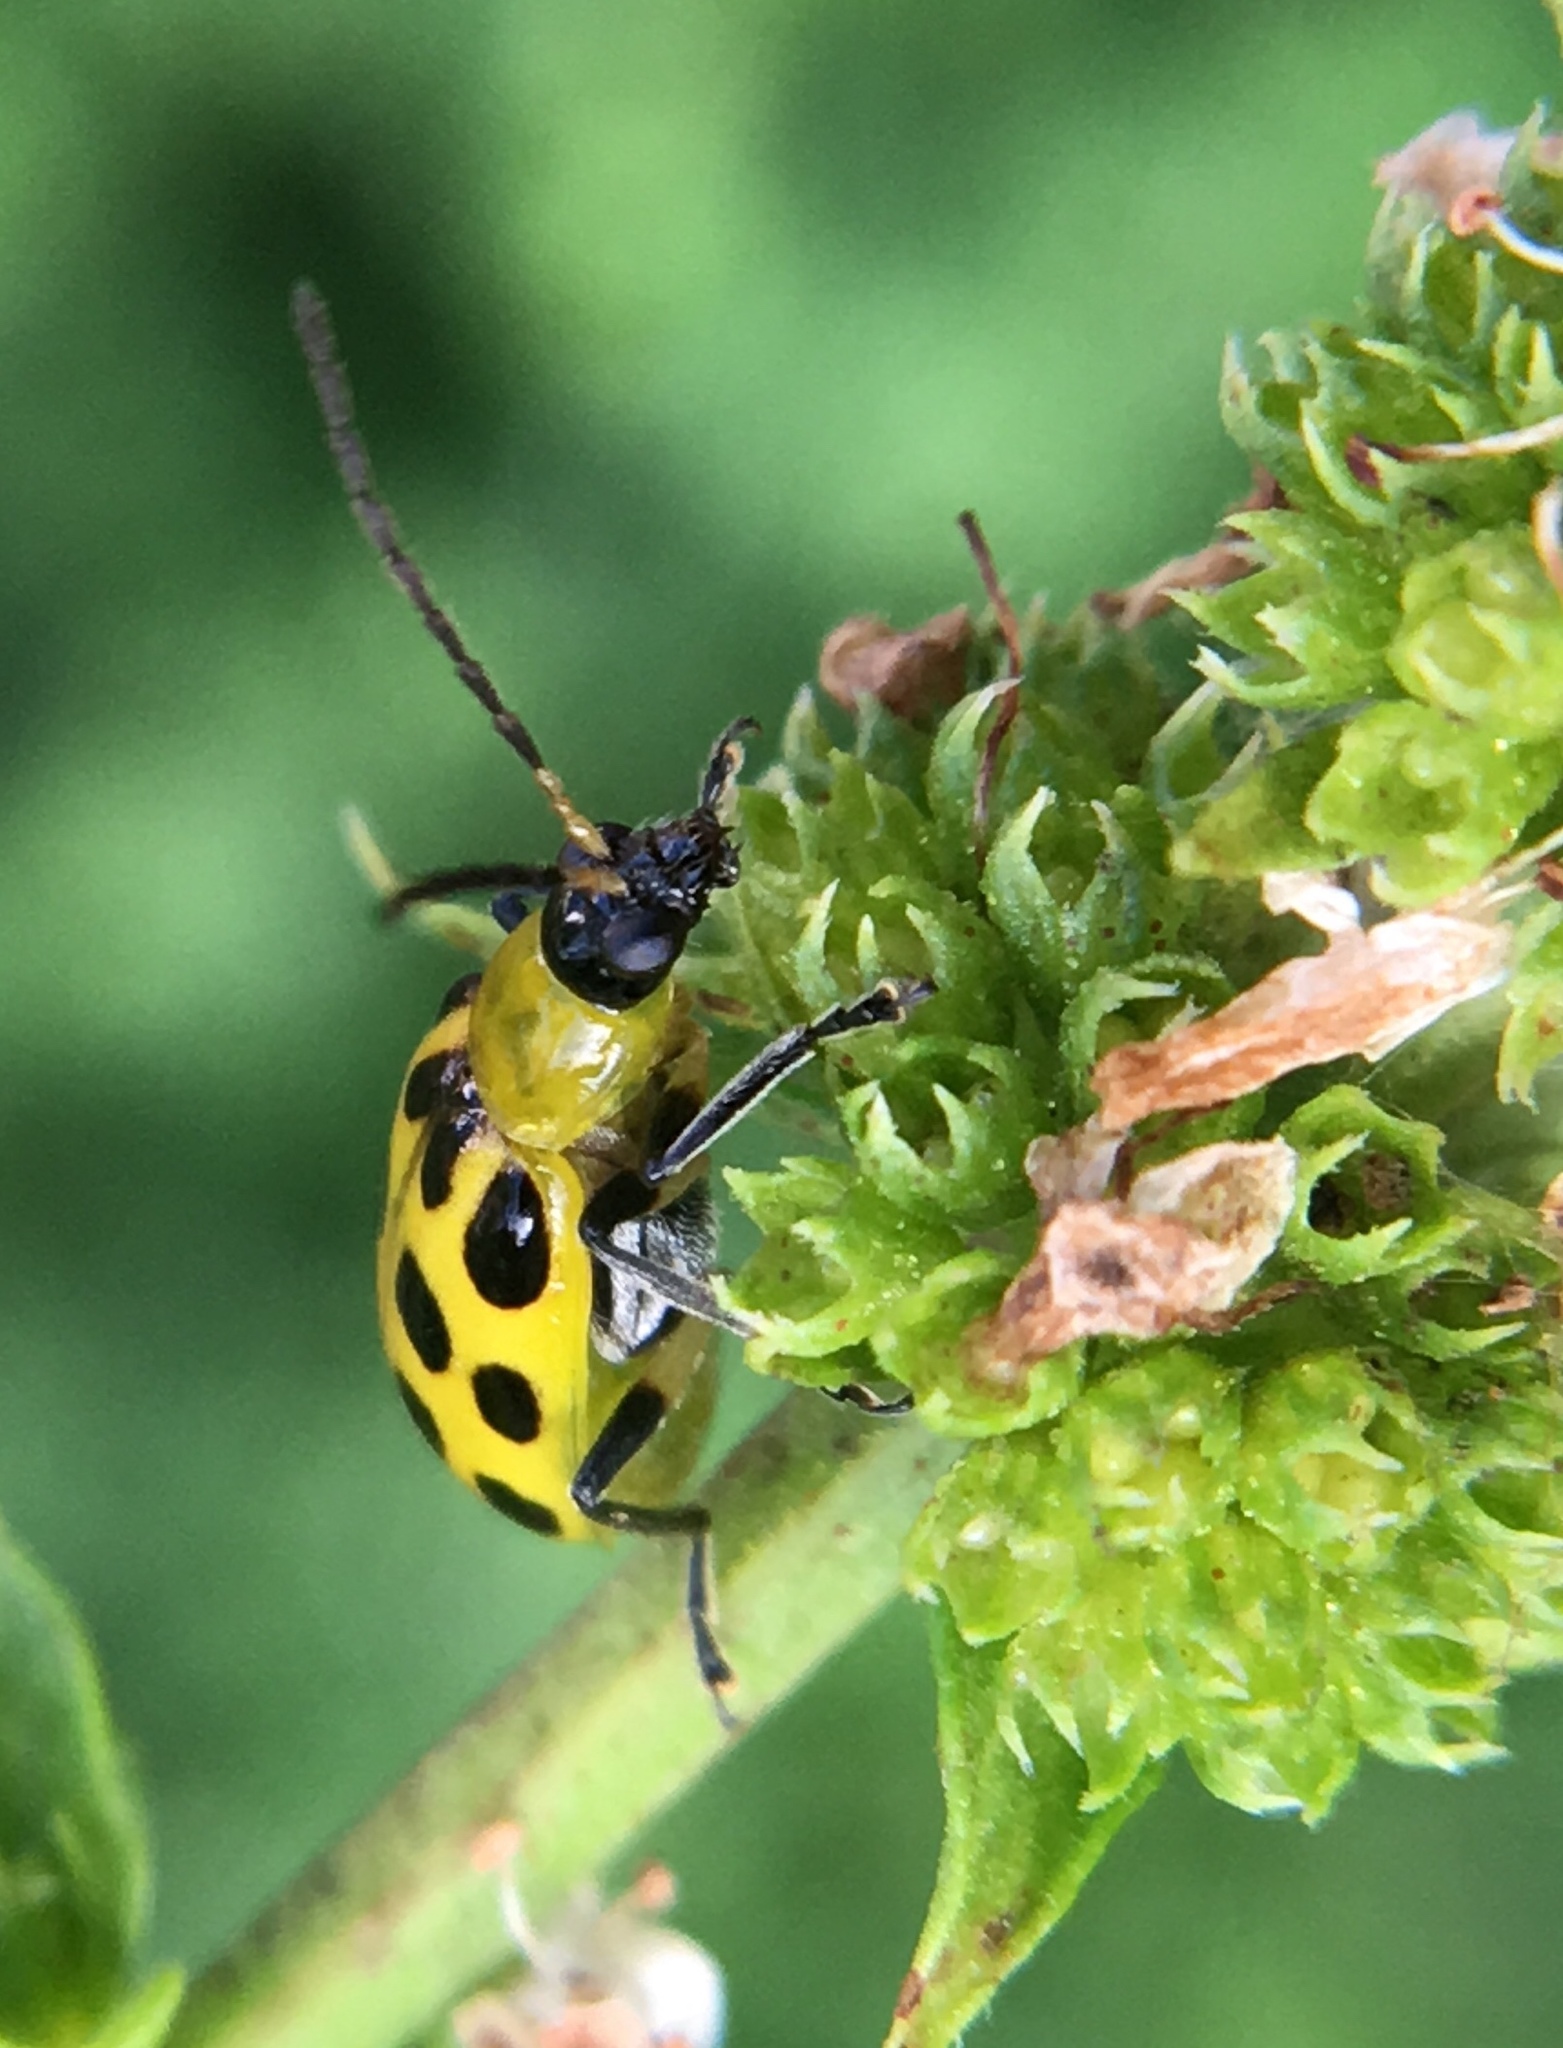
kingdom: Animalia
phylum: Arthropoda
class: Insecta
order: Coleoptera
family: Chrysomelidae
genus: Diabrotica
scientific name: Diabrotica undecimpunctata
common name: Spotted cucumber beetle
